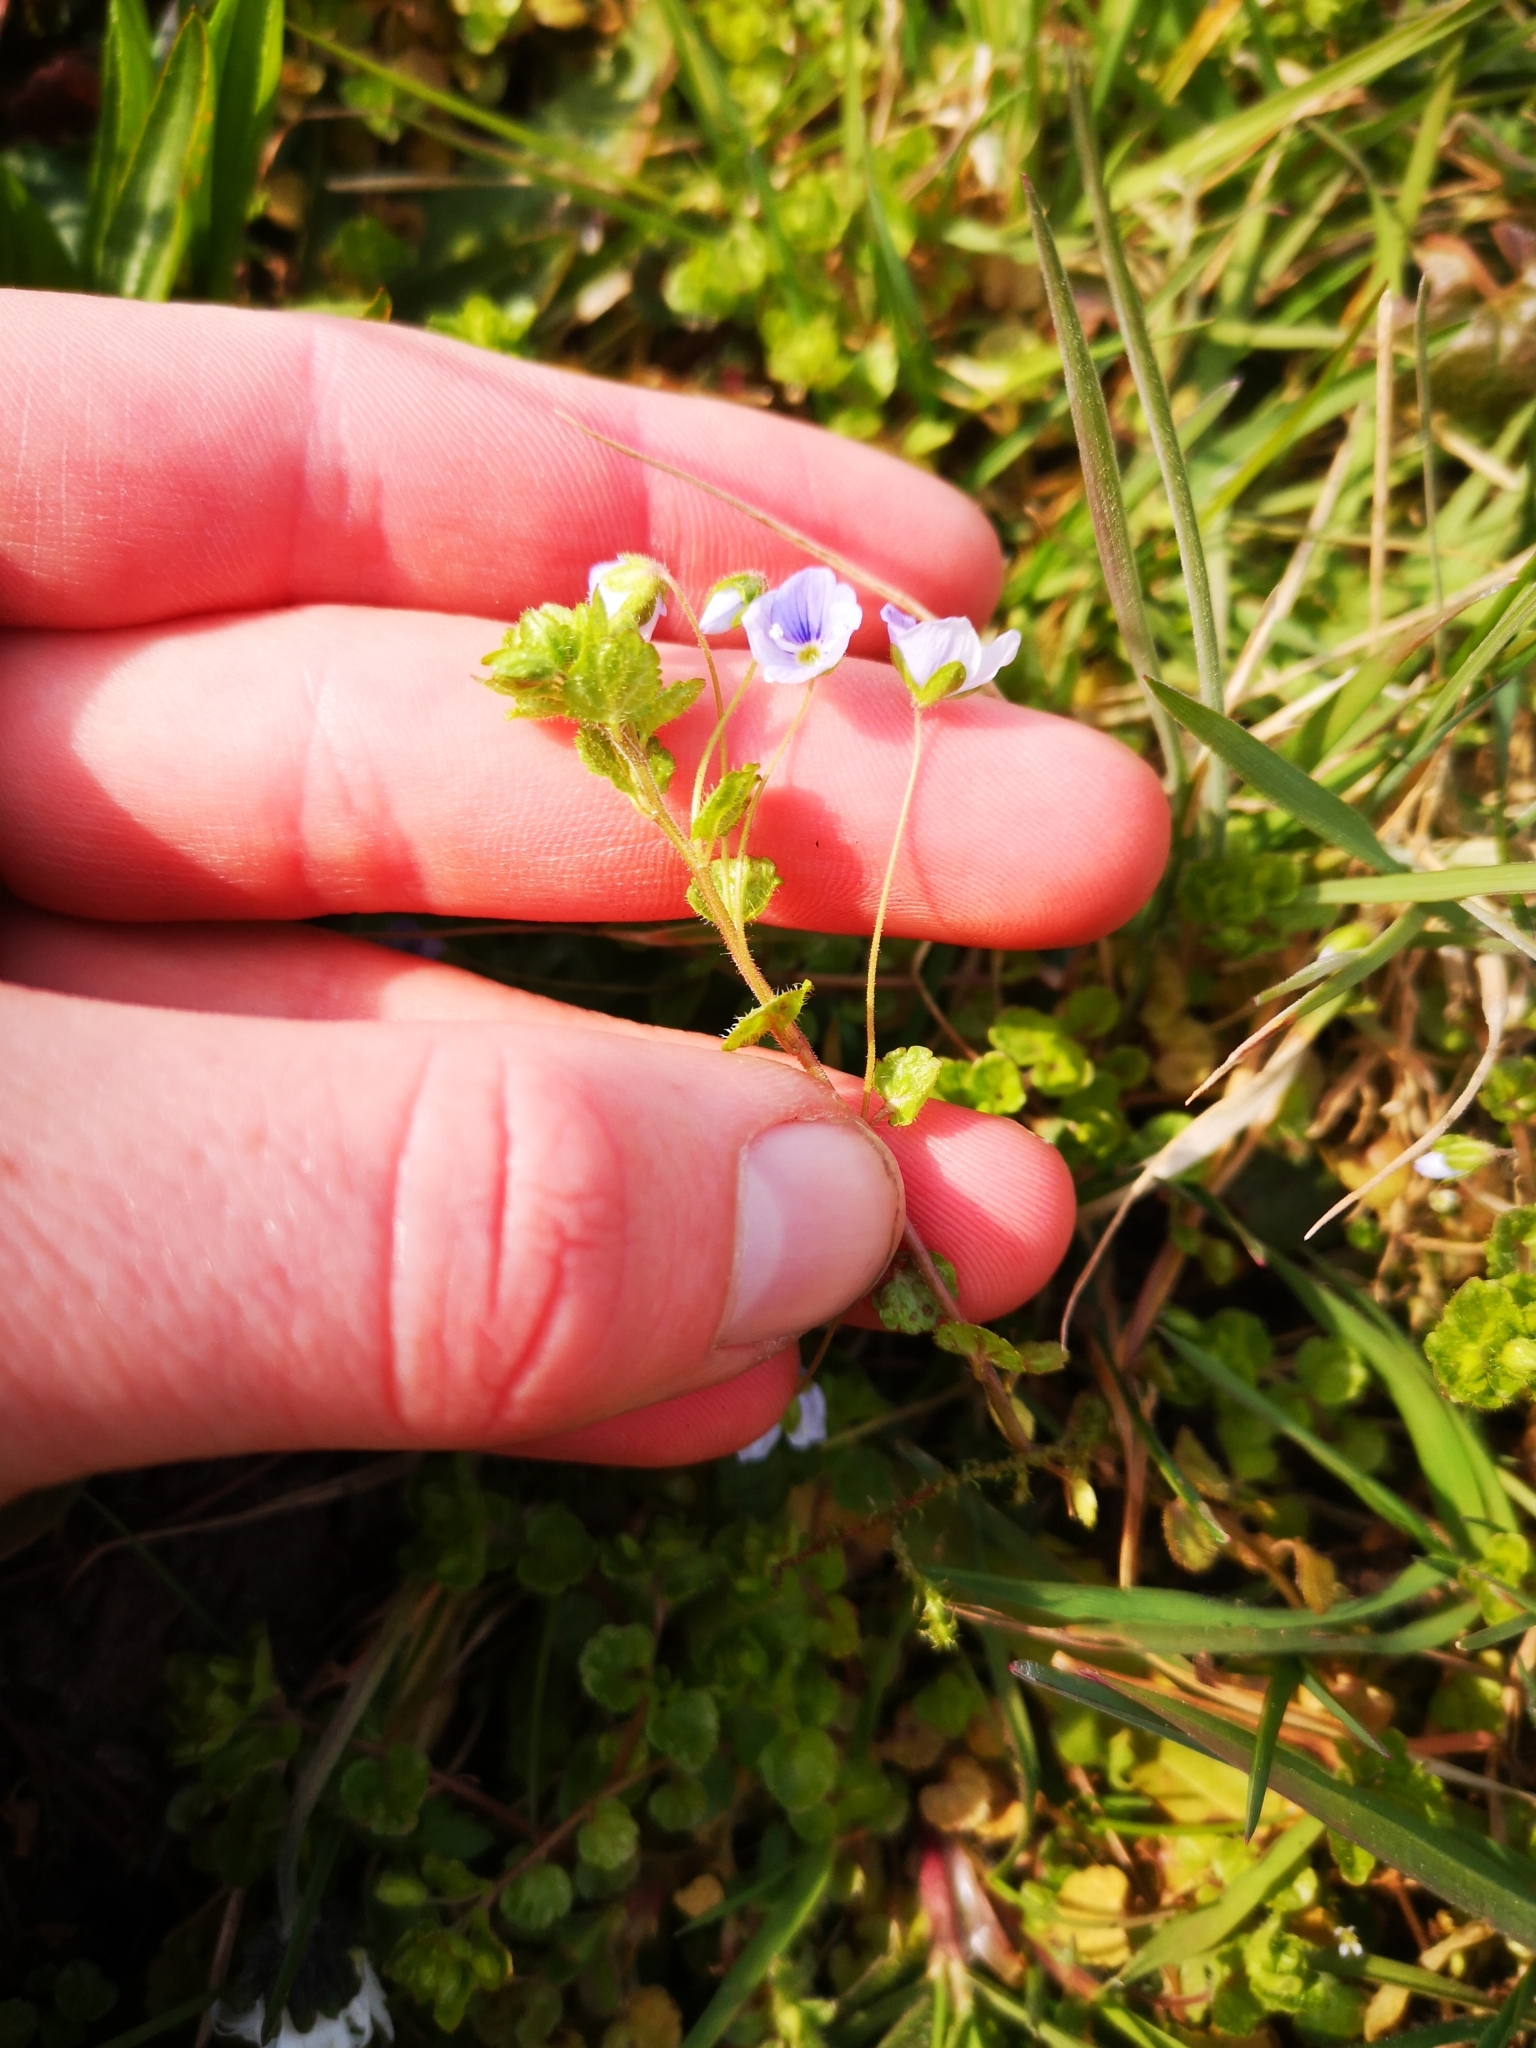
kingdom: Plantae
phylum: Tracheophyta
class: Magnoliopsida
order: Lamiales
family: Plantaginaceae
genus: Veronica
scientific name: Veronica filiformis
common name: Slender speedwell
